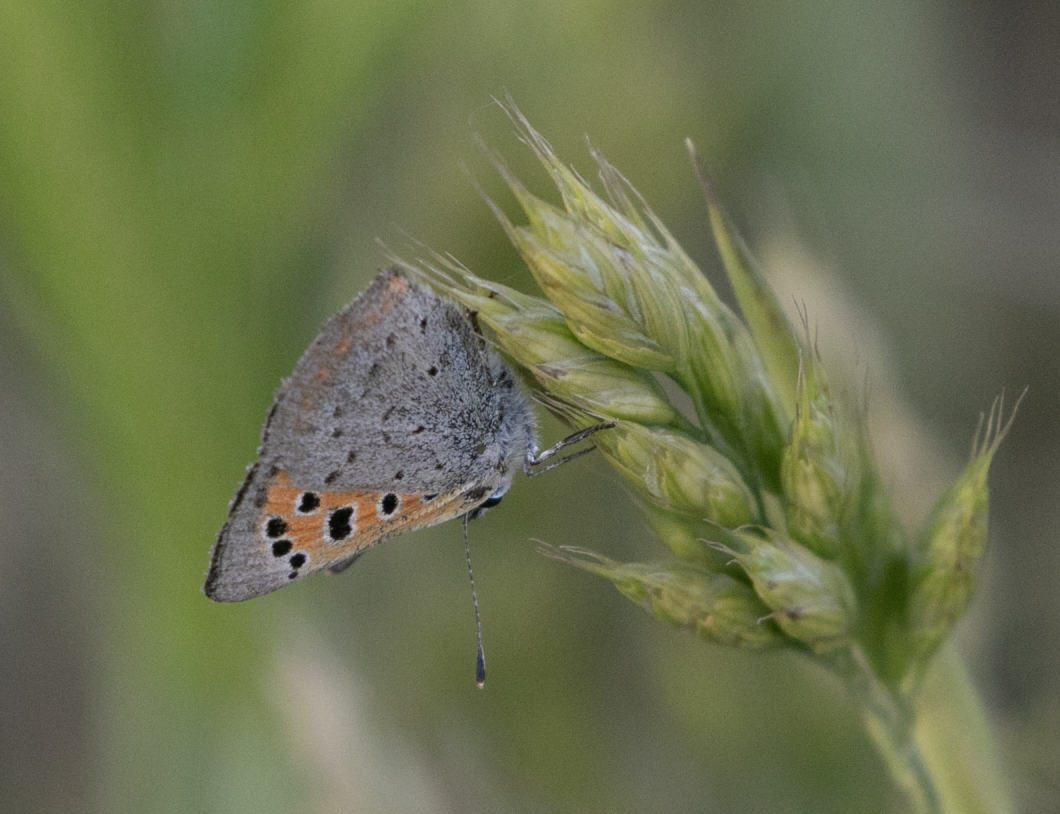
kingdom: Animalia
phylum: Arthropoda
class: Insecta
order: Lepidoptera
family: Lycaenidae
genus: Lycaena
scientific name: Lycaena phlaeas
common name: Small copper
